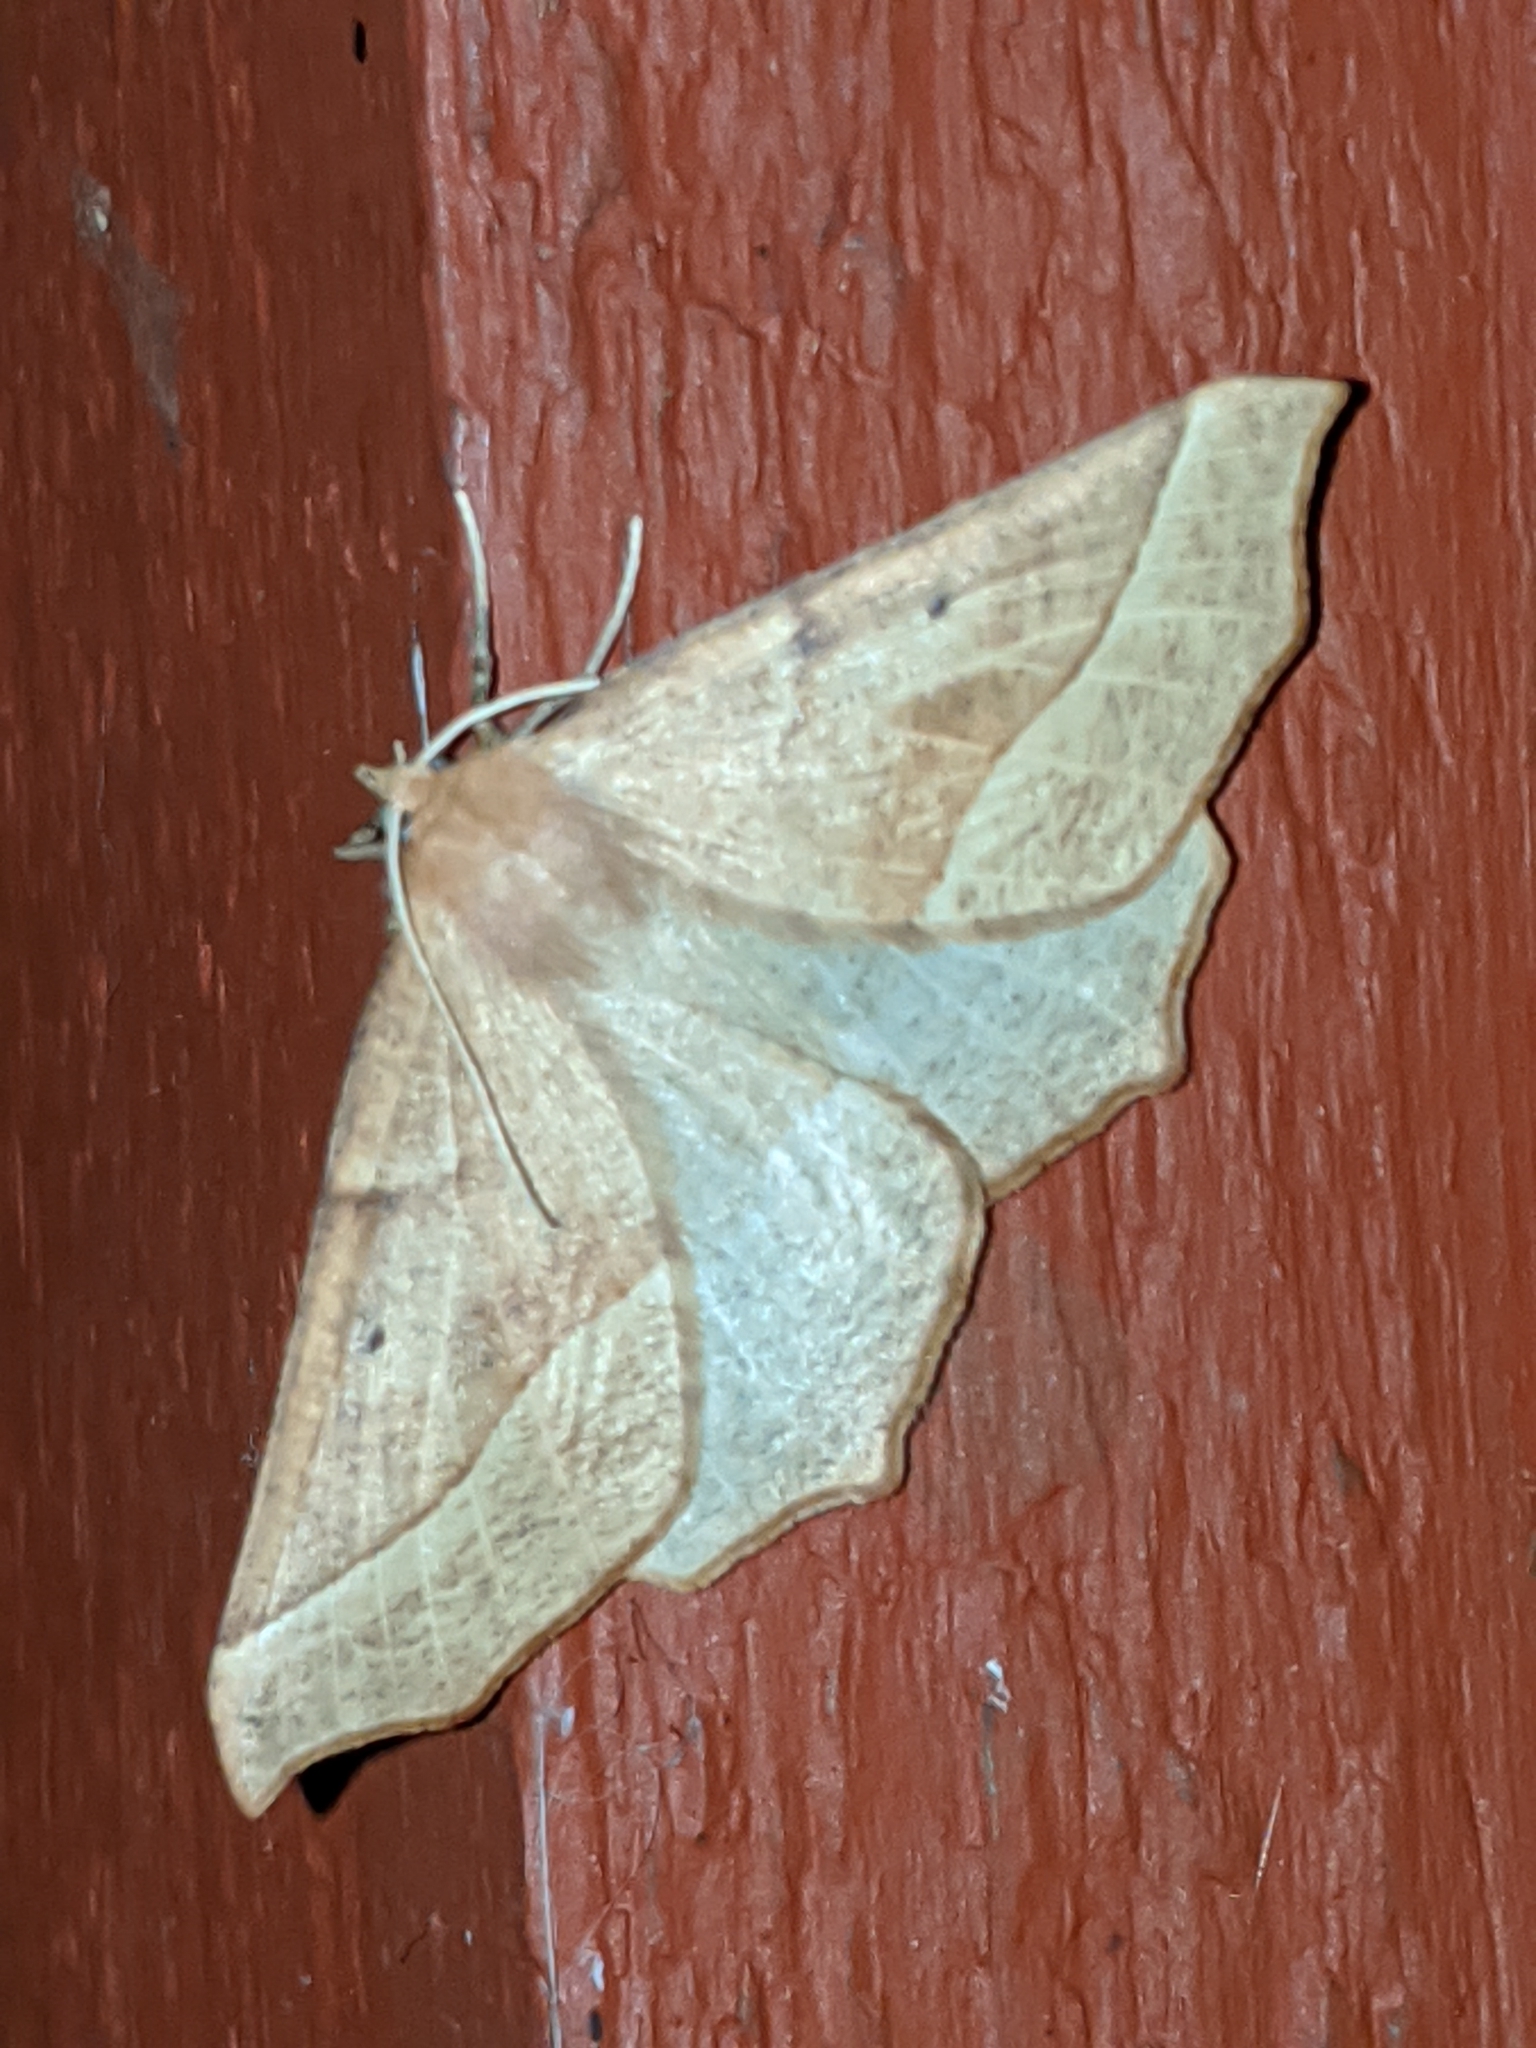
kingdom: Animalia
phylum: Arthropoda
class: Insecta
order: Lepidoptera
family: Geometridae
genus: Synaxis
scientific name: Synaxis jubararia
